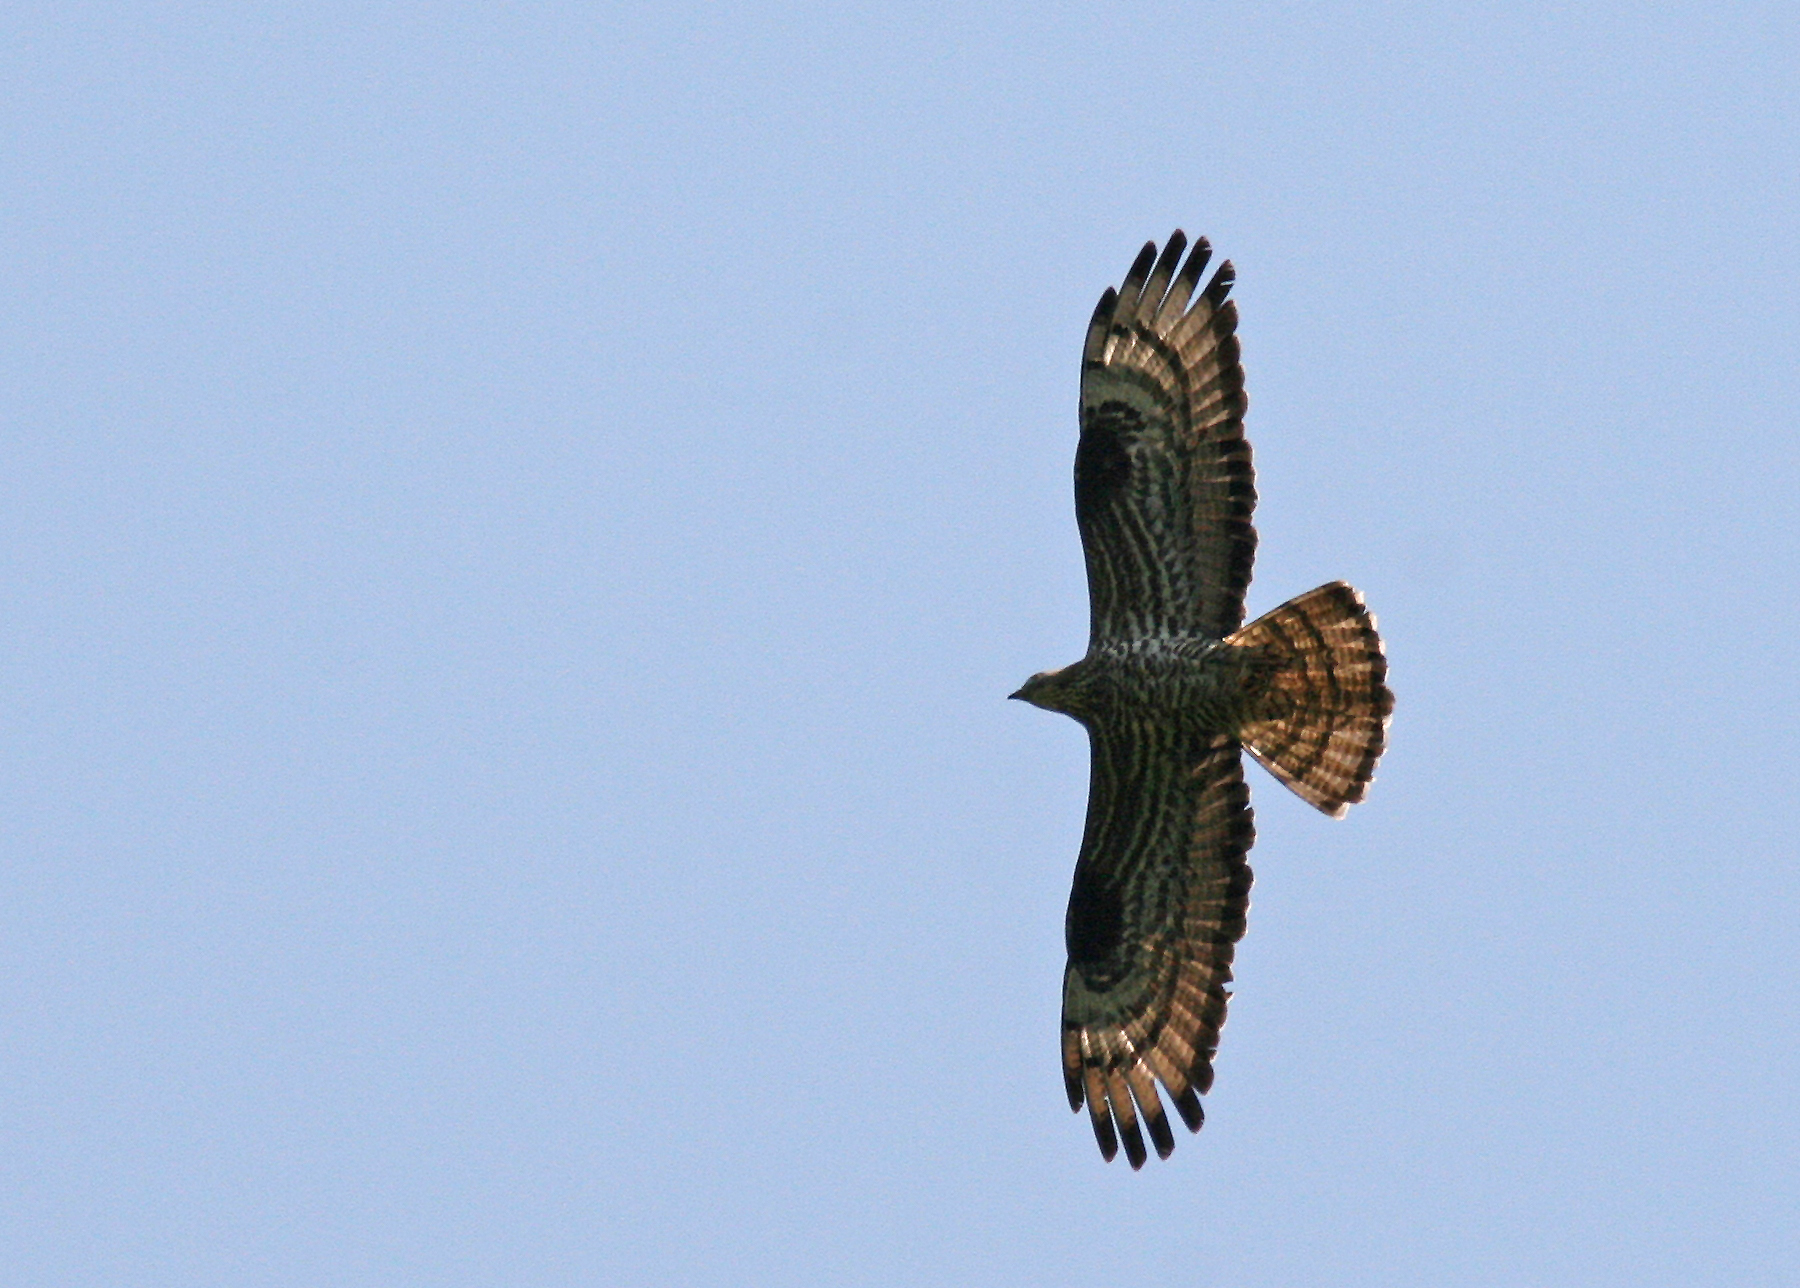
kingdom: Animalia
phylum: Chordata
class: Aves
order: Accipitriformes
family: Accipitridae
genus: Pernis
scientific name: Pernis apivorus
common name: European honey buzzard
